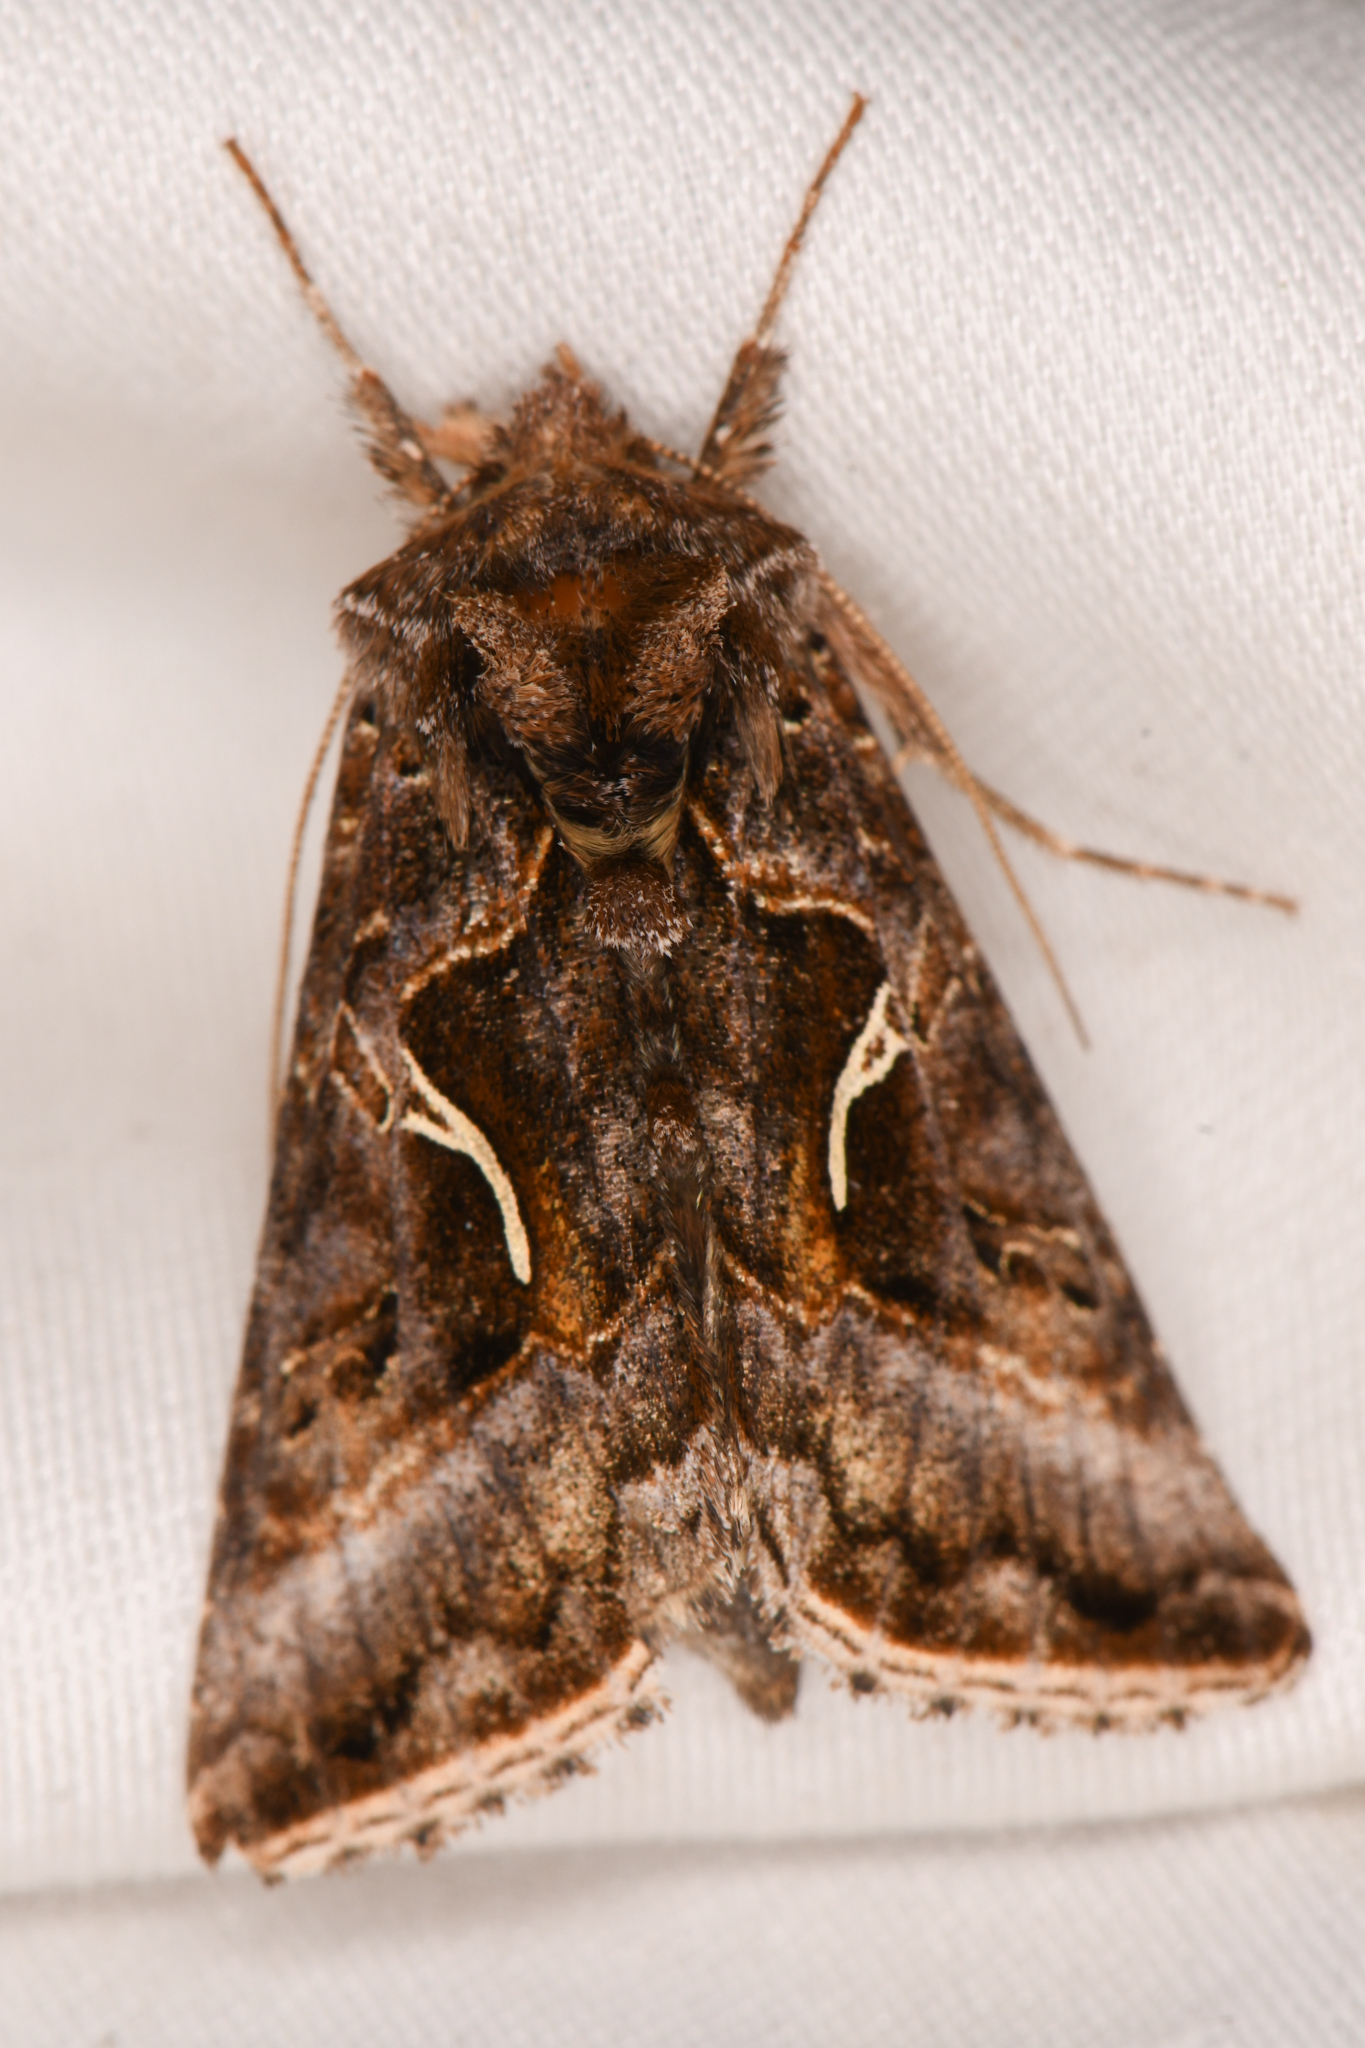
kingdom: Animalia
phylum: Arthropoda
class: Insecta
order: Lepidoptera
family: Noctuidae
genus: Autographa
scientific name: Autographa sansoni
